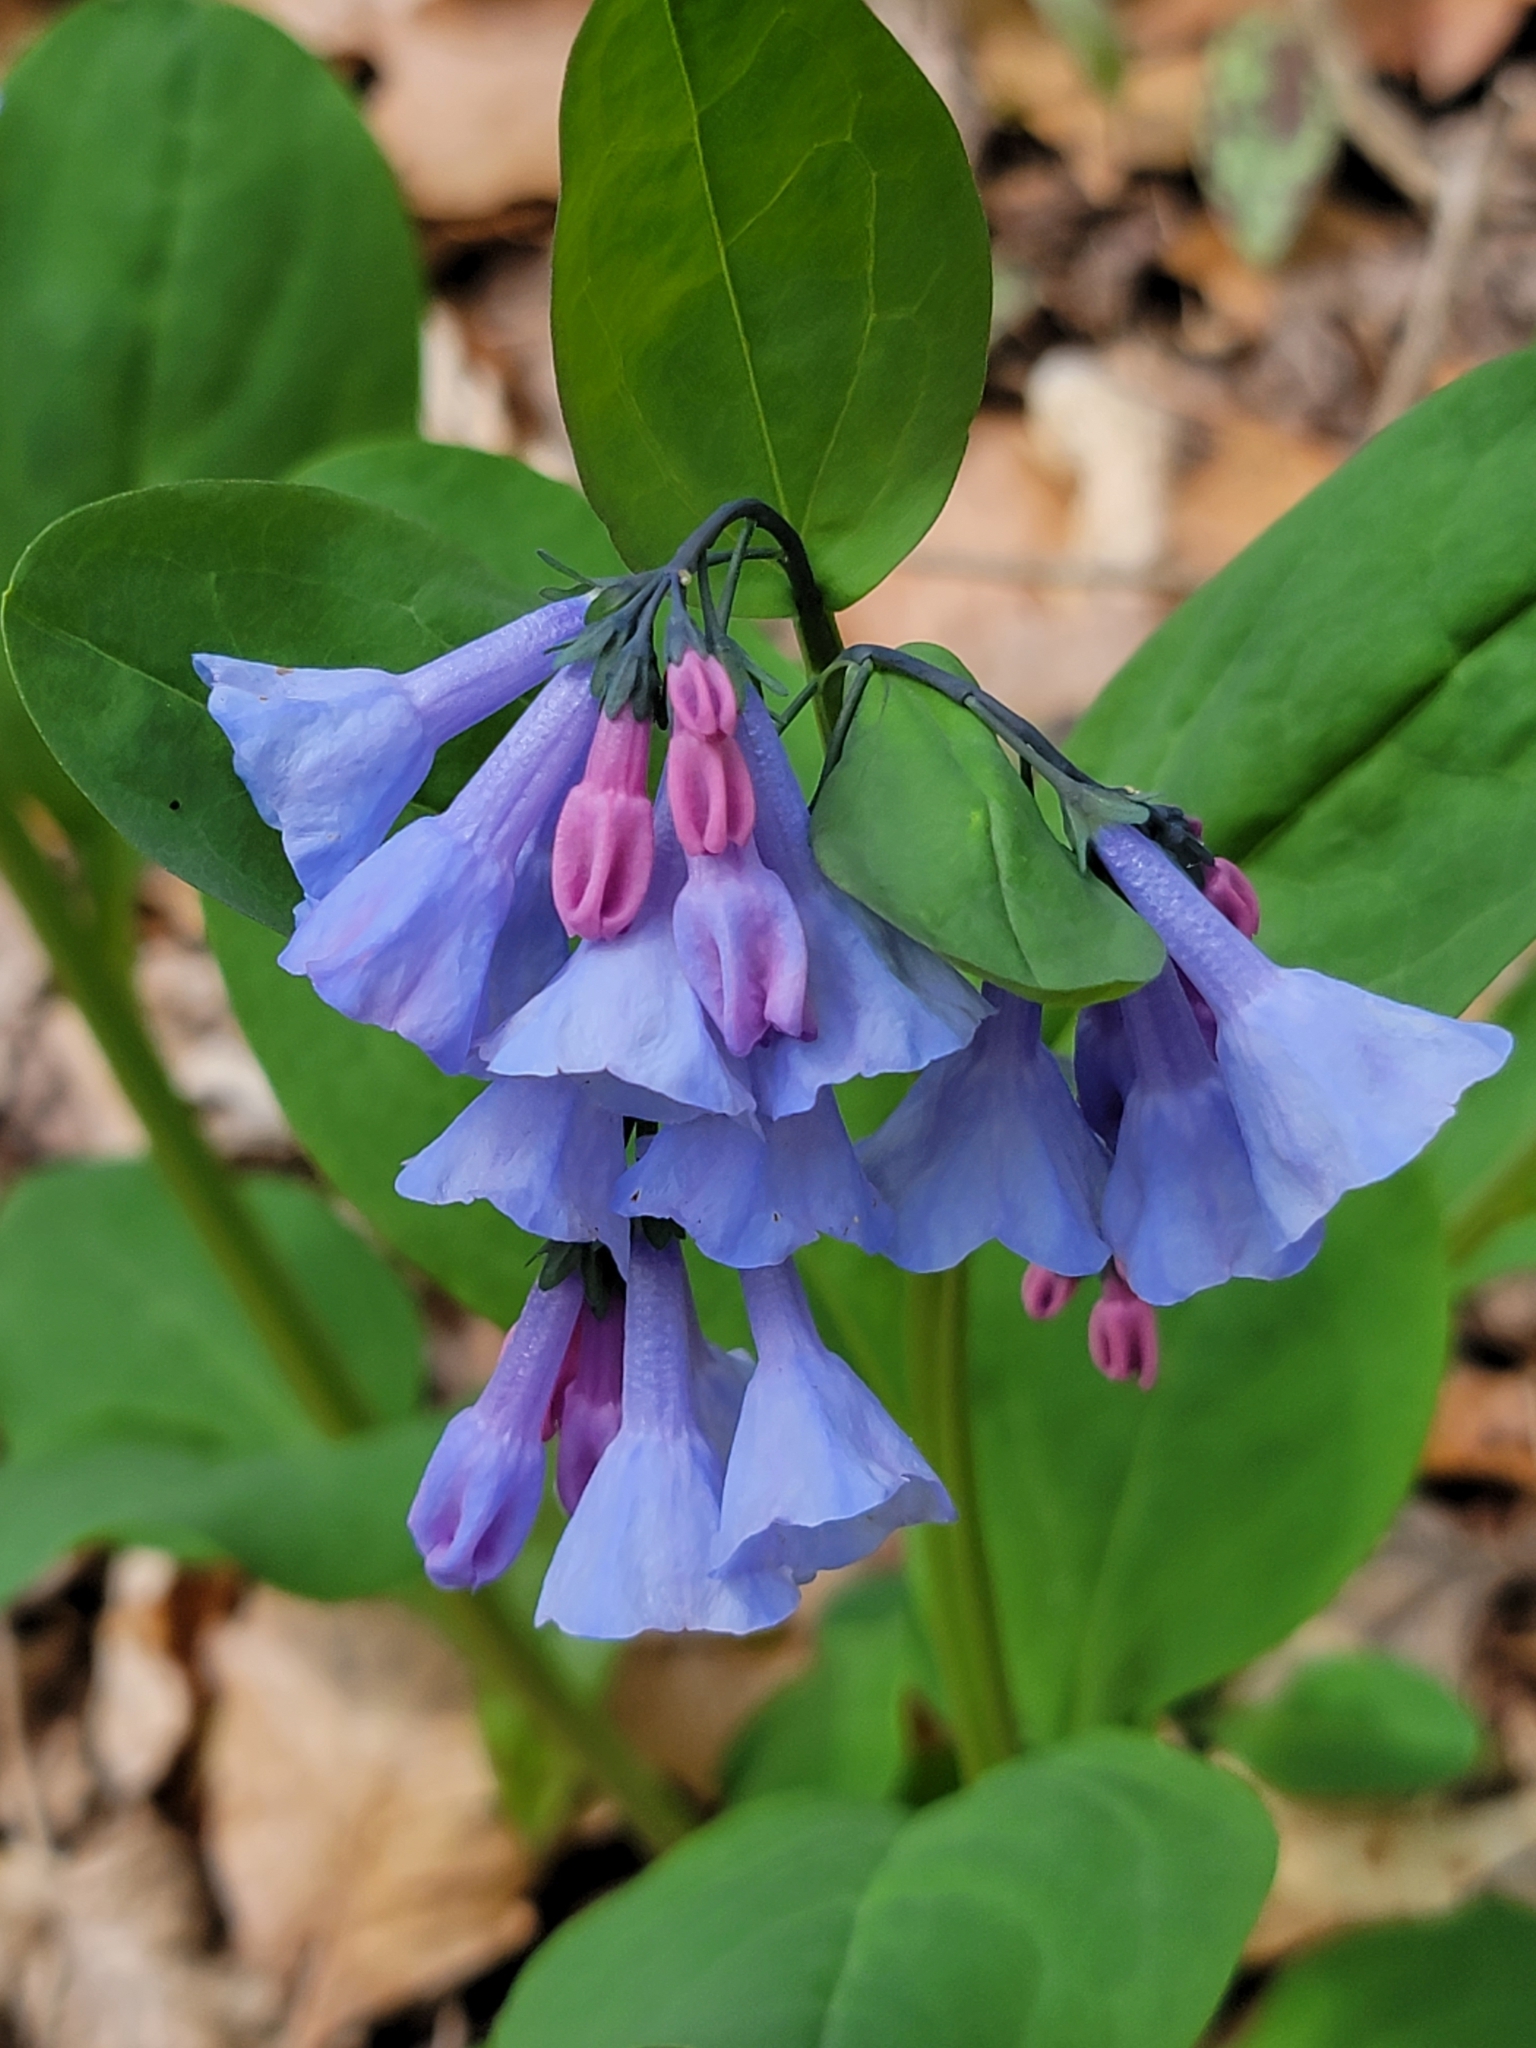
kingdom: Plantae
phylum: Tracheophyta
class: Magnoliopsida
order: Boraginales
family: Boraginaceae
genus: Mertensia
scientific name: Mertensia virginica
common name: Virginia bluebells
